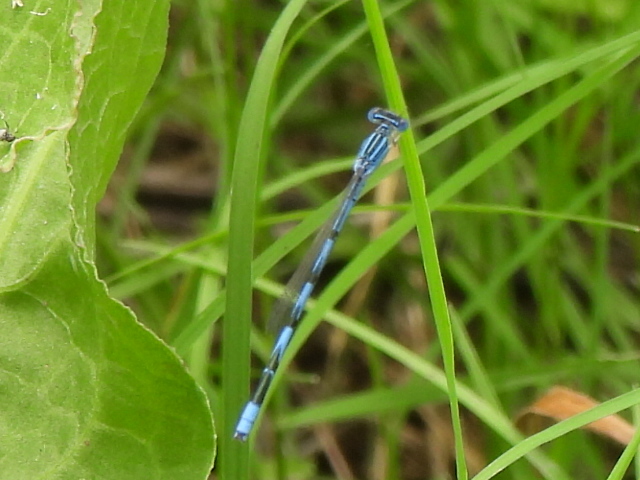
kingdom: Animalia
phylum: Arthropoda
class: Insecta
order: Odonata
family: Coenagrionidae
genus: Enallagma
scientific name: Enallagma basidens
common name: Double-striped bluet
